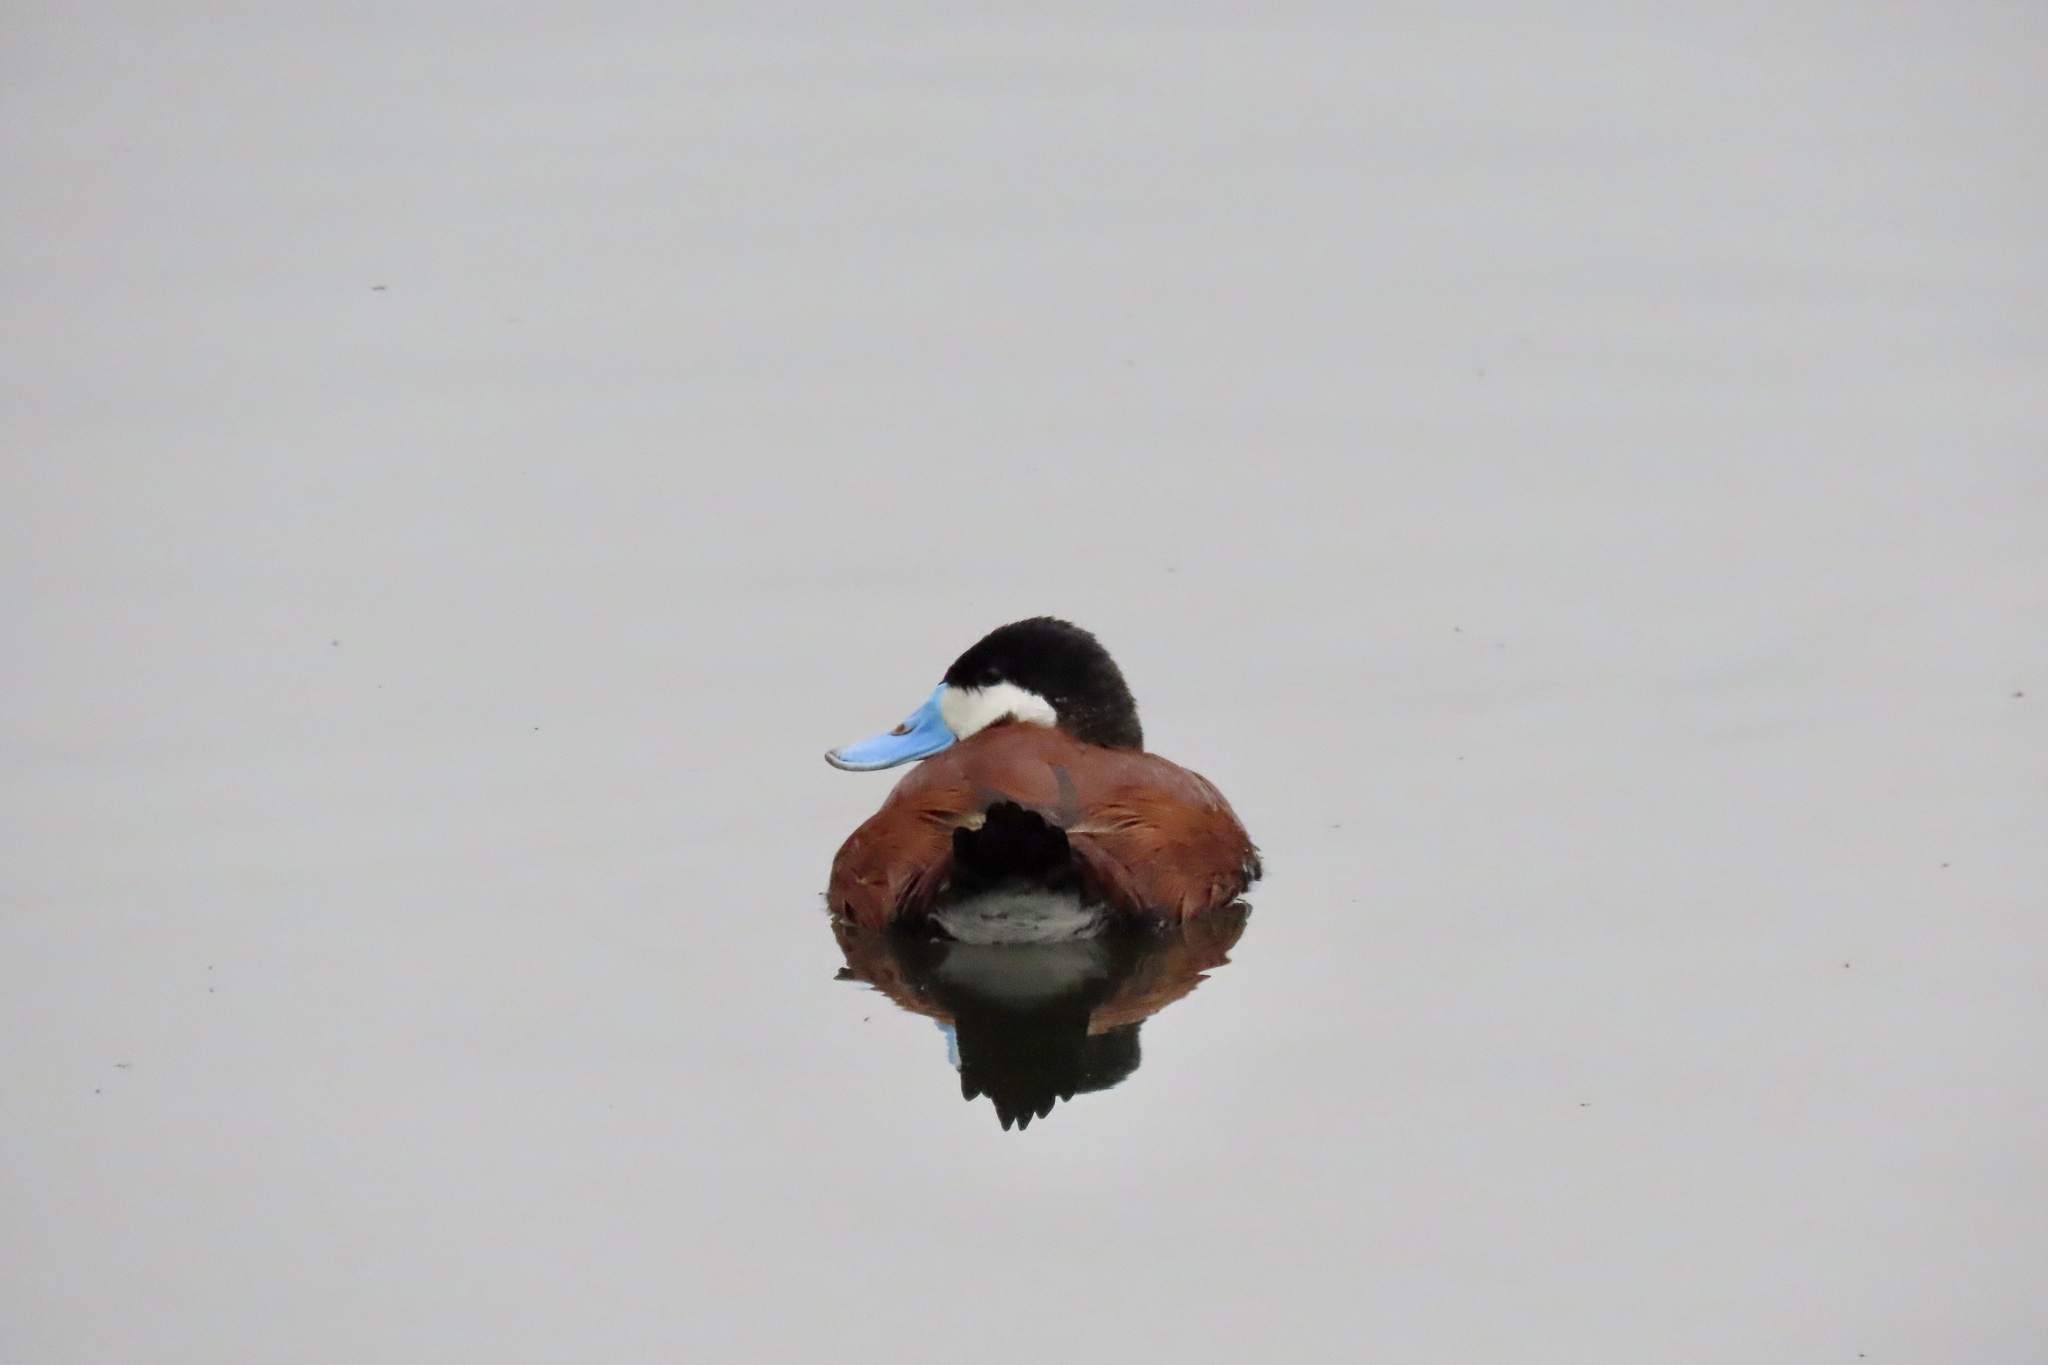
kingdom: Animalia
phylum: Chordata
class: Aves
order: Anseriformes
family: Anatidae
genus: Oxyura
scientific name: Oxyura jamaicensis
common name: Ruddy duck
